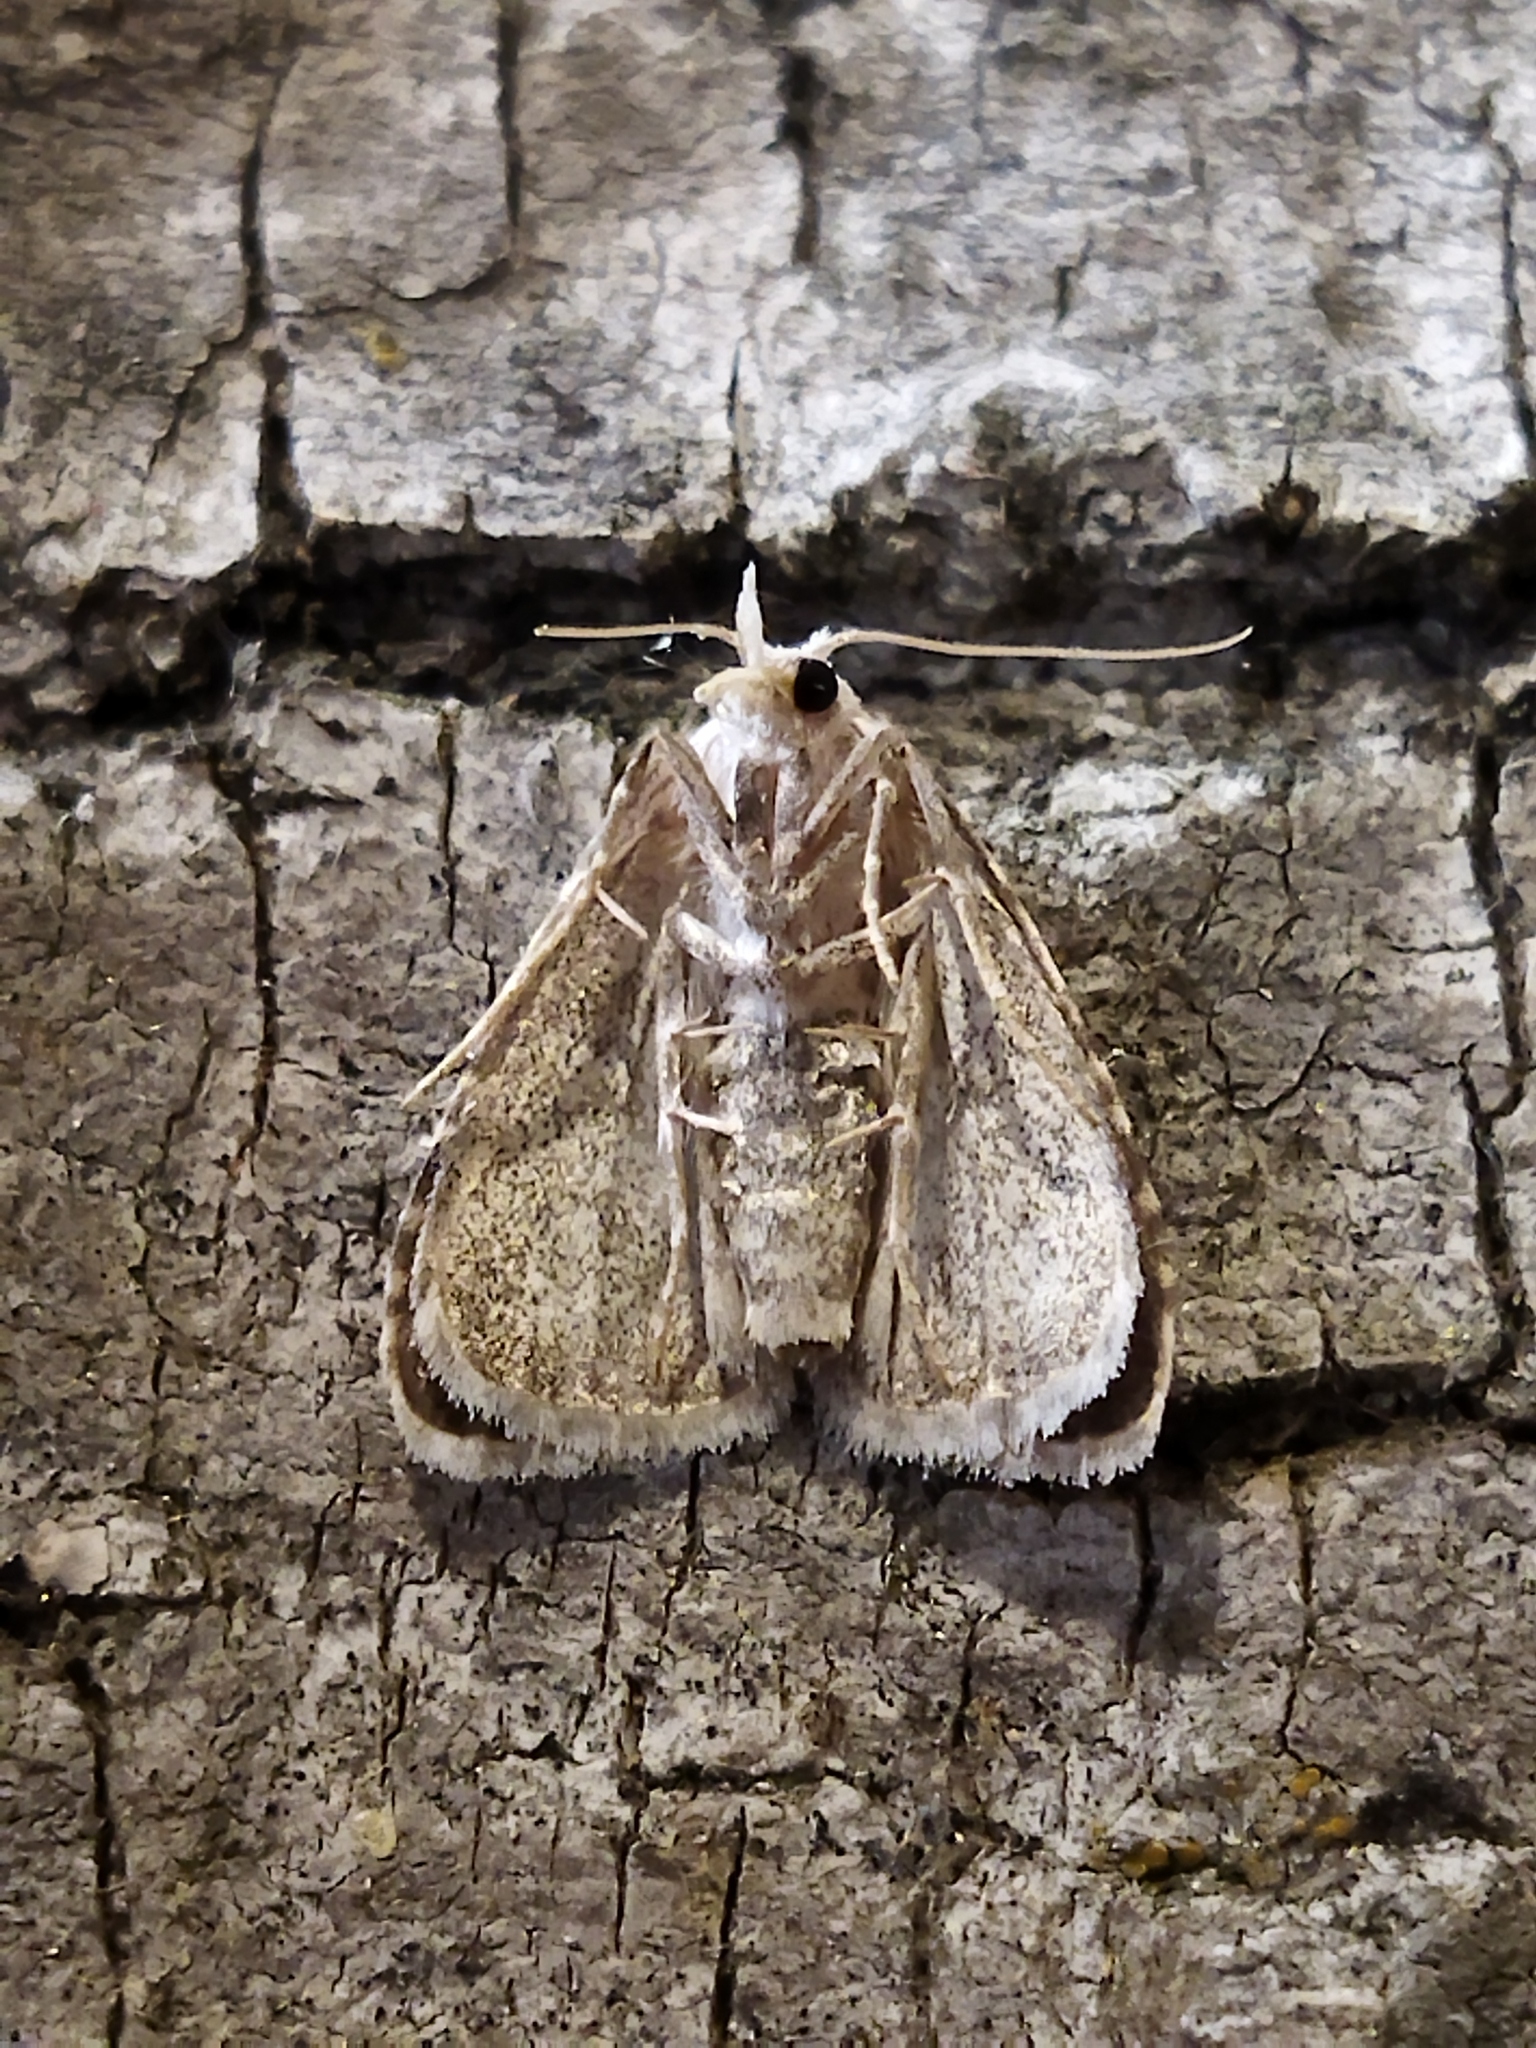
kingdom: Animalia
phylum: Arthropoda
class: Insecta
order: Lepidoptera
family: Nolidae
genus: Meganola
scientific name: Meganola albula
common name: Kent black arches
